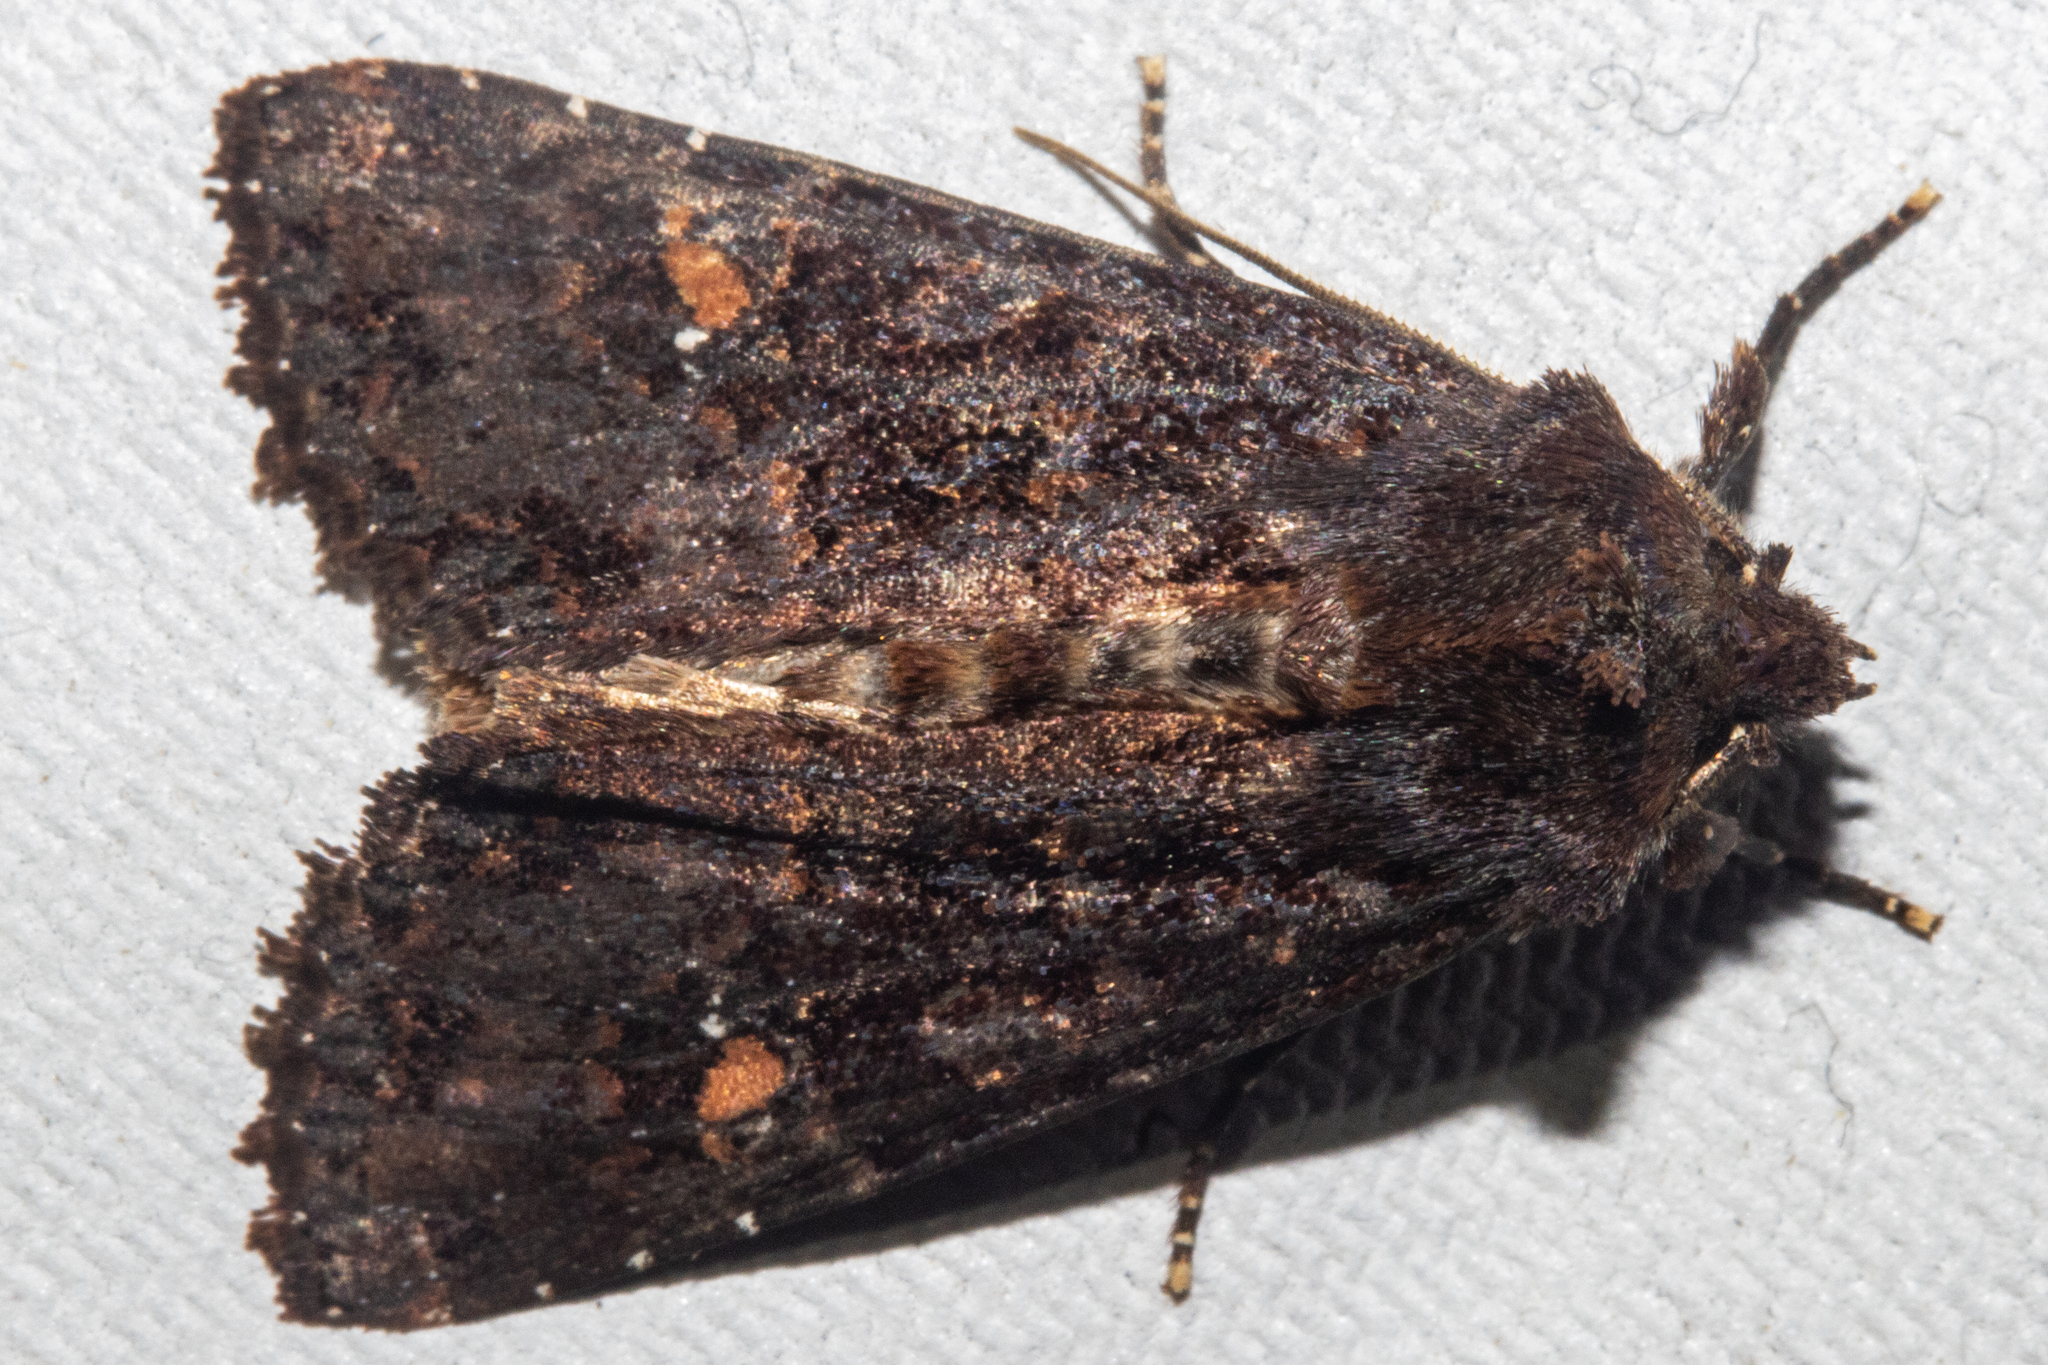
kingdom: Animalia
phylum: Arthropoda
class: Insecta
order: Lepidoptera
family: Noctuidae
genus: Meterana
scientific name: Meterana vitiosa
